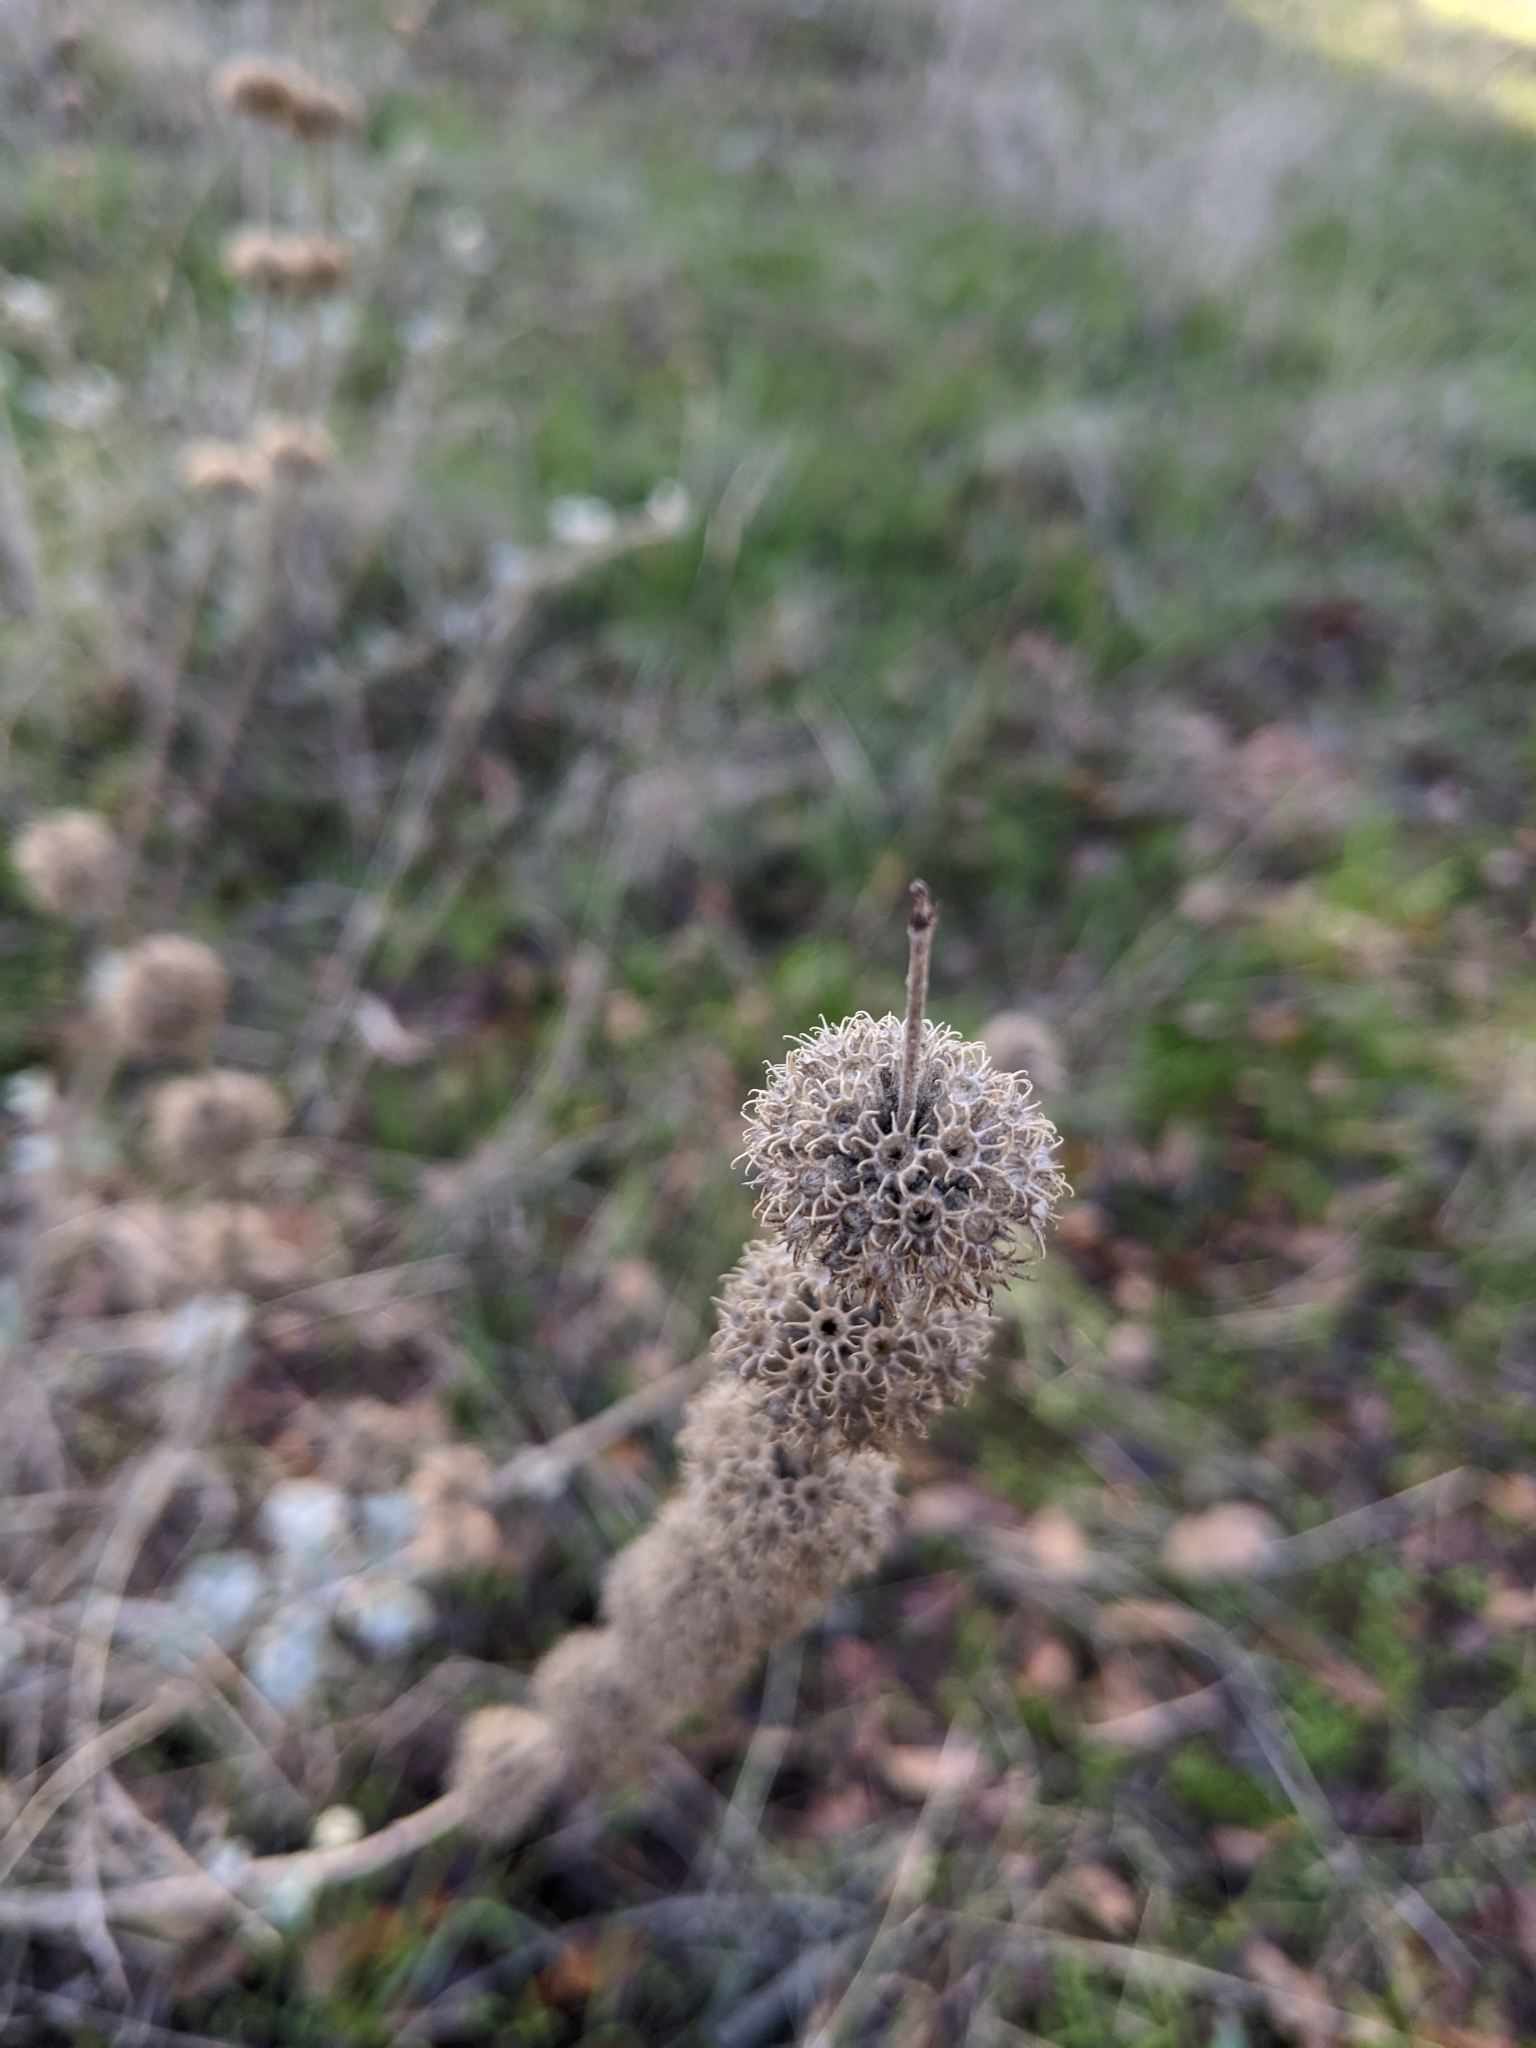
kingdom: Plantae
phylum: Tracheophyta
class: Magnoliopsida
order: Lamiales
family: Lamiaceae
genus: Marrubium
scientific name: Marrubium vulgare
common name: Horehound
